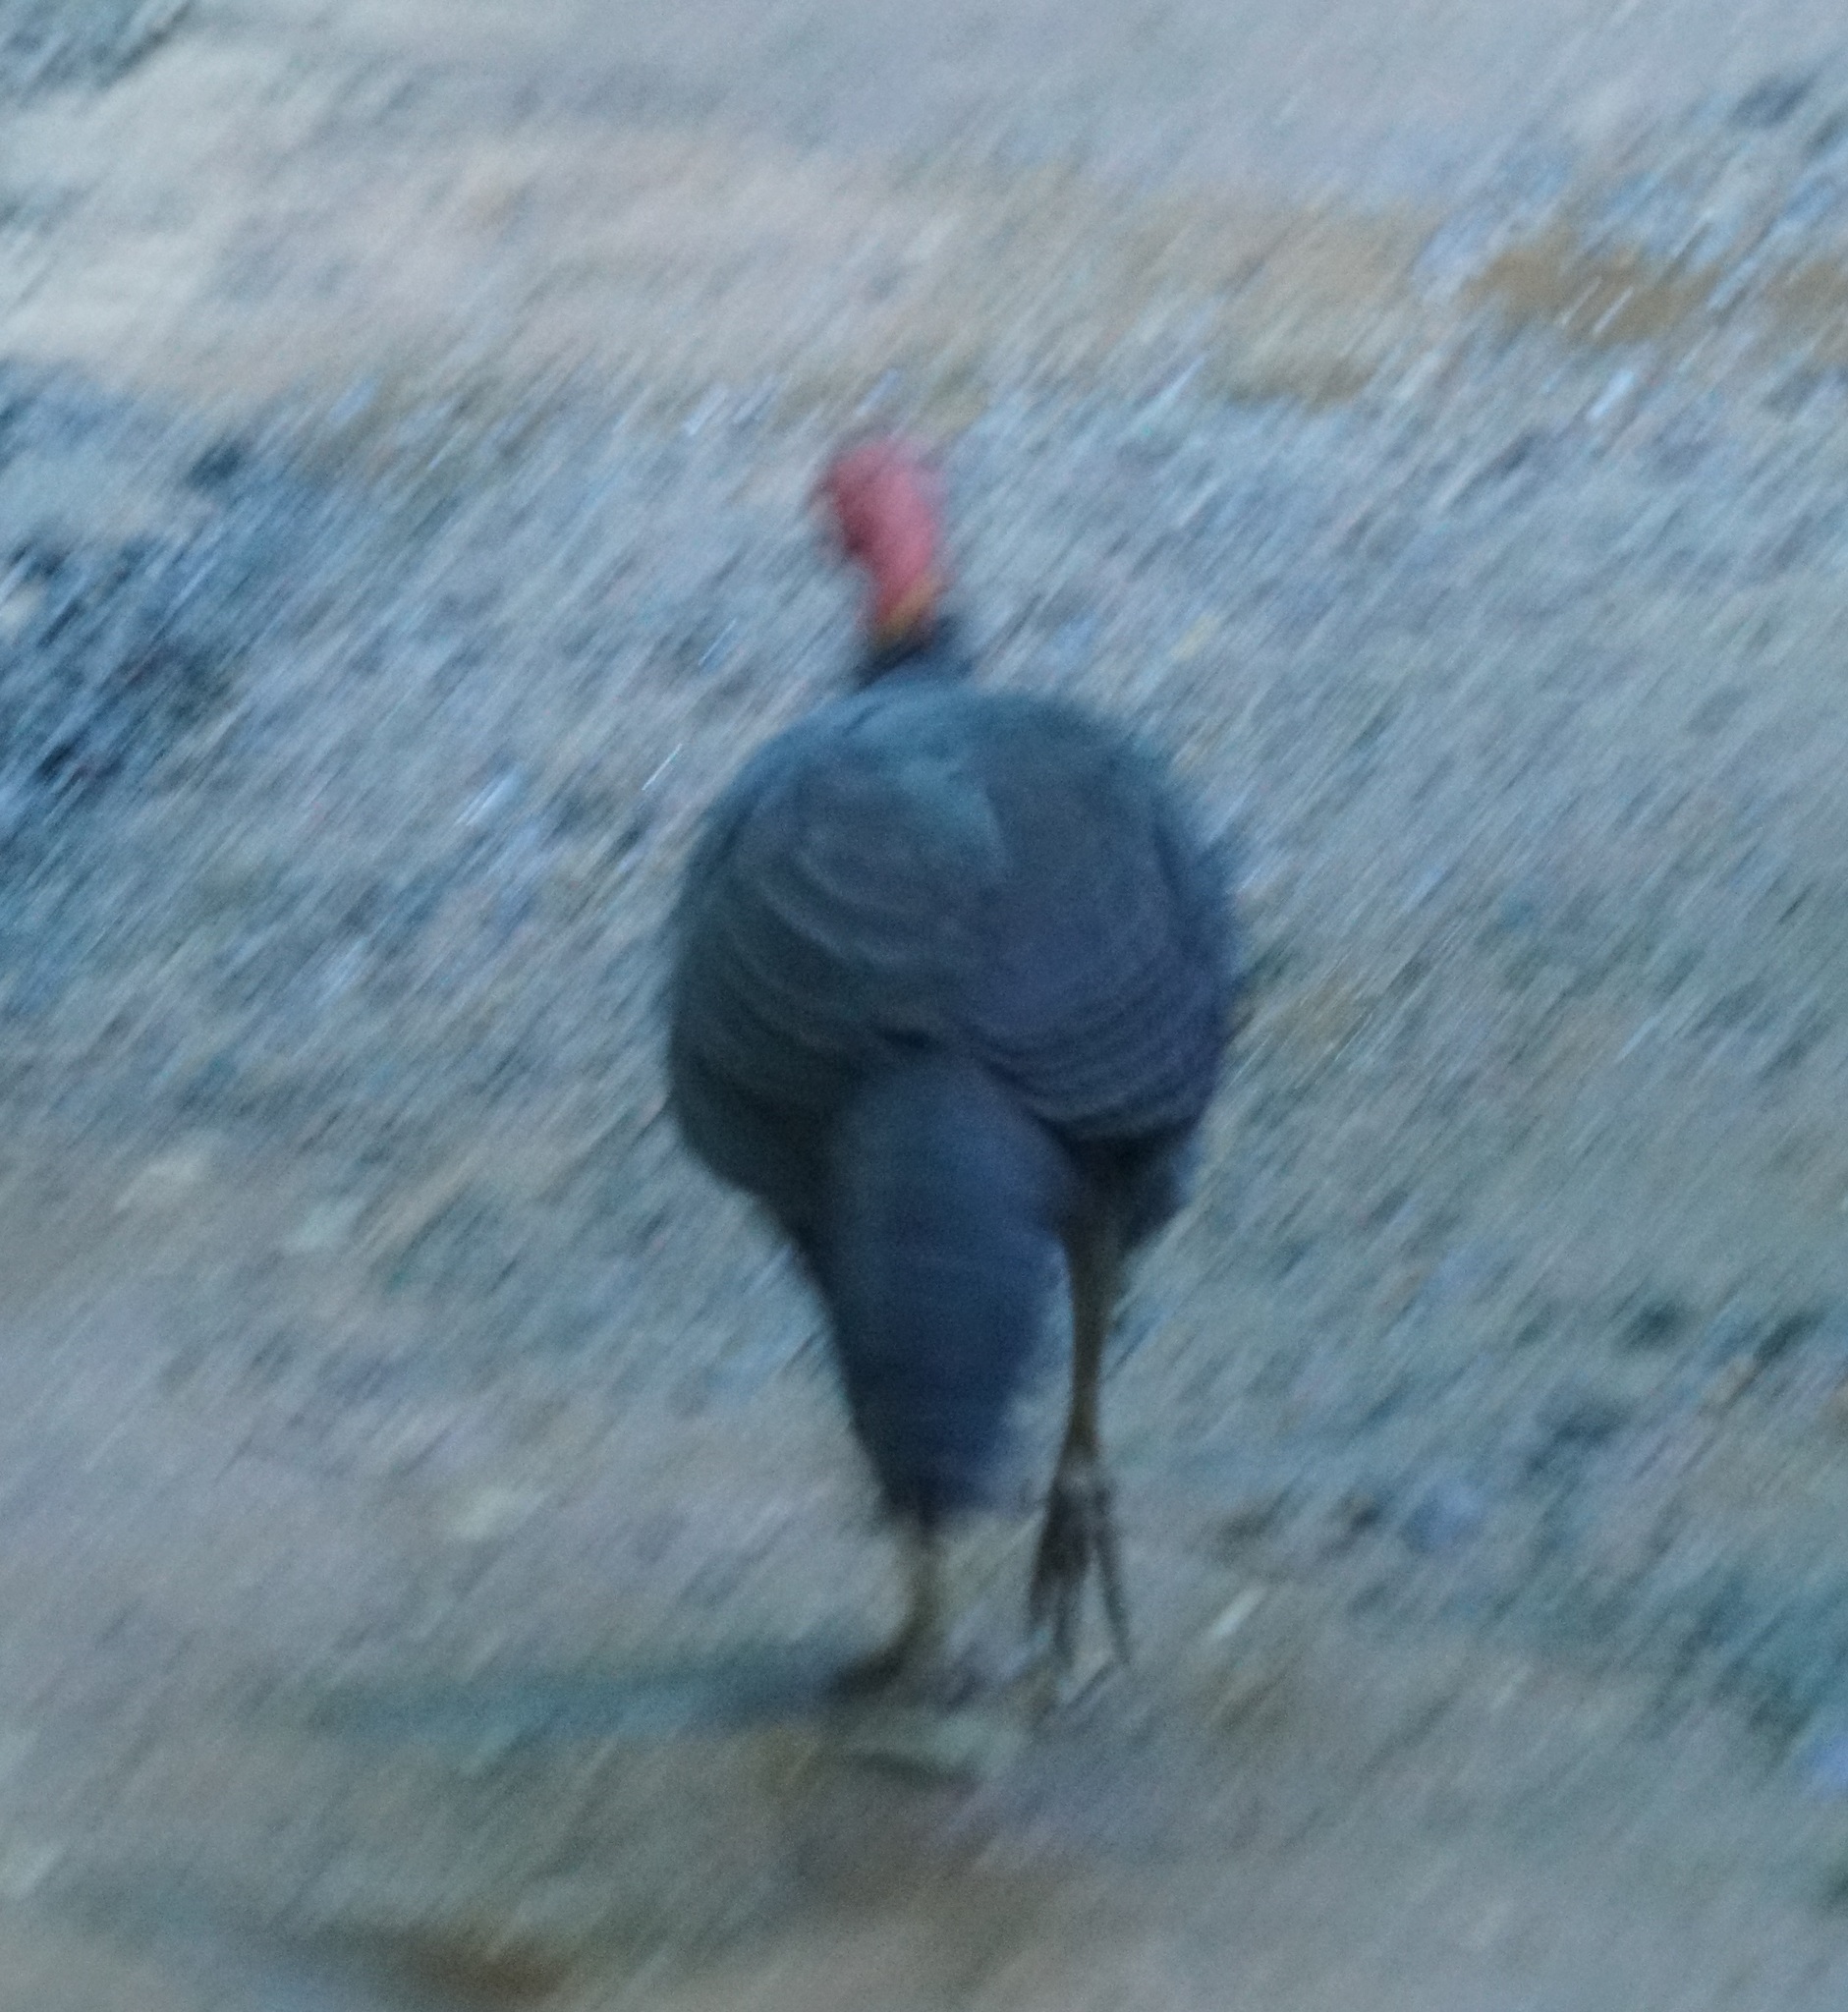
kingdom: Animalia
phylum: Chordata
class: Aves
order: Galliformes
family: Megapodiidae
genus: Alectura
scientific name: Alectura lathami
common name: Australian brushturkey
